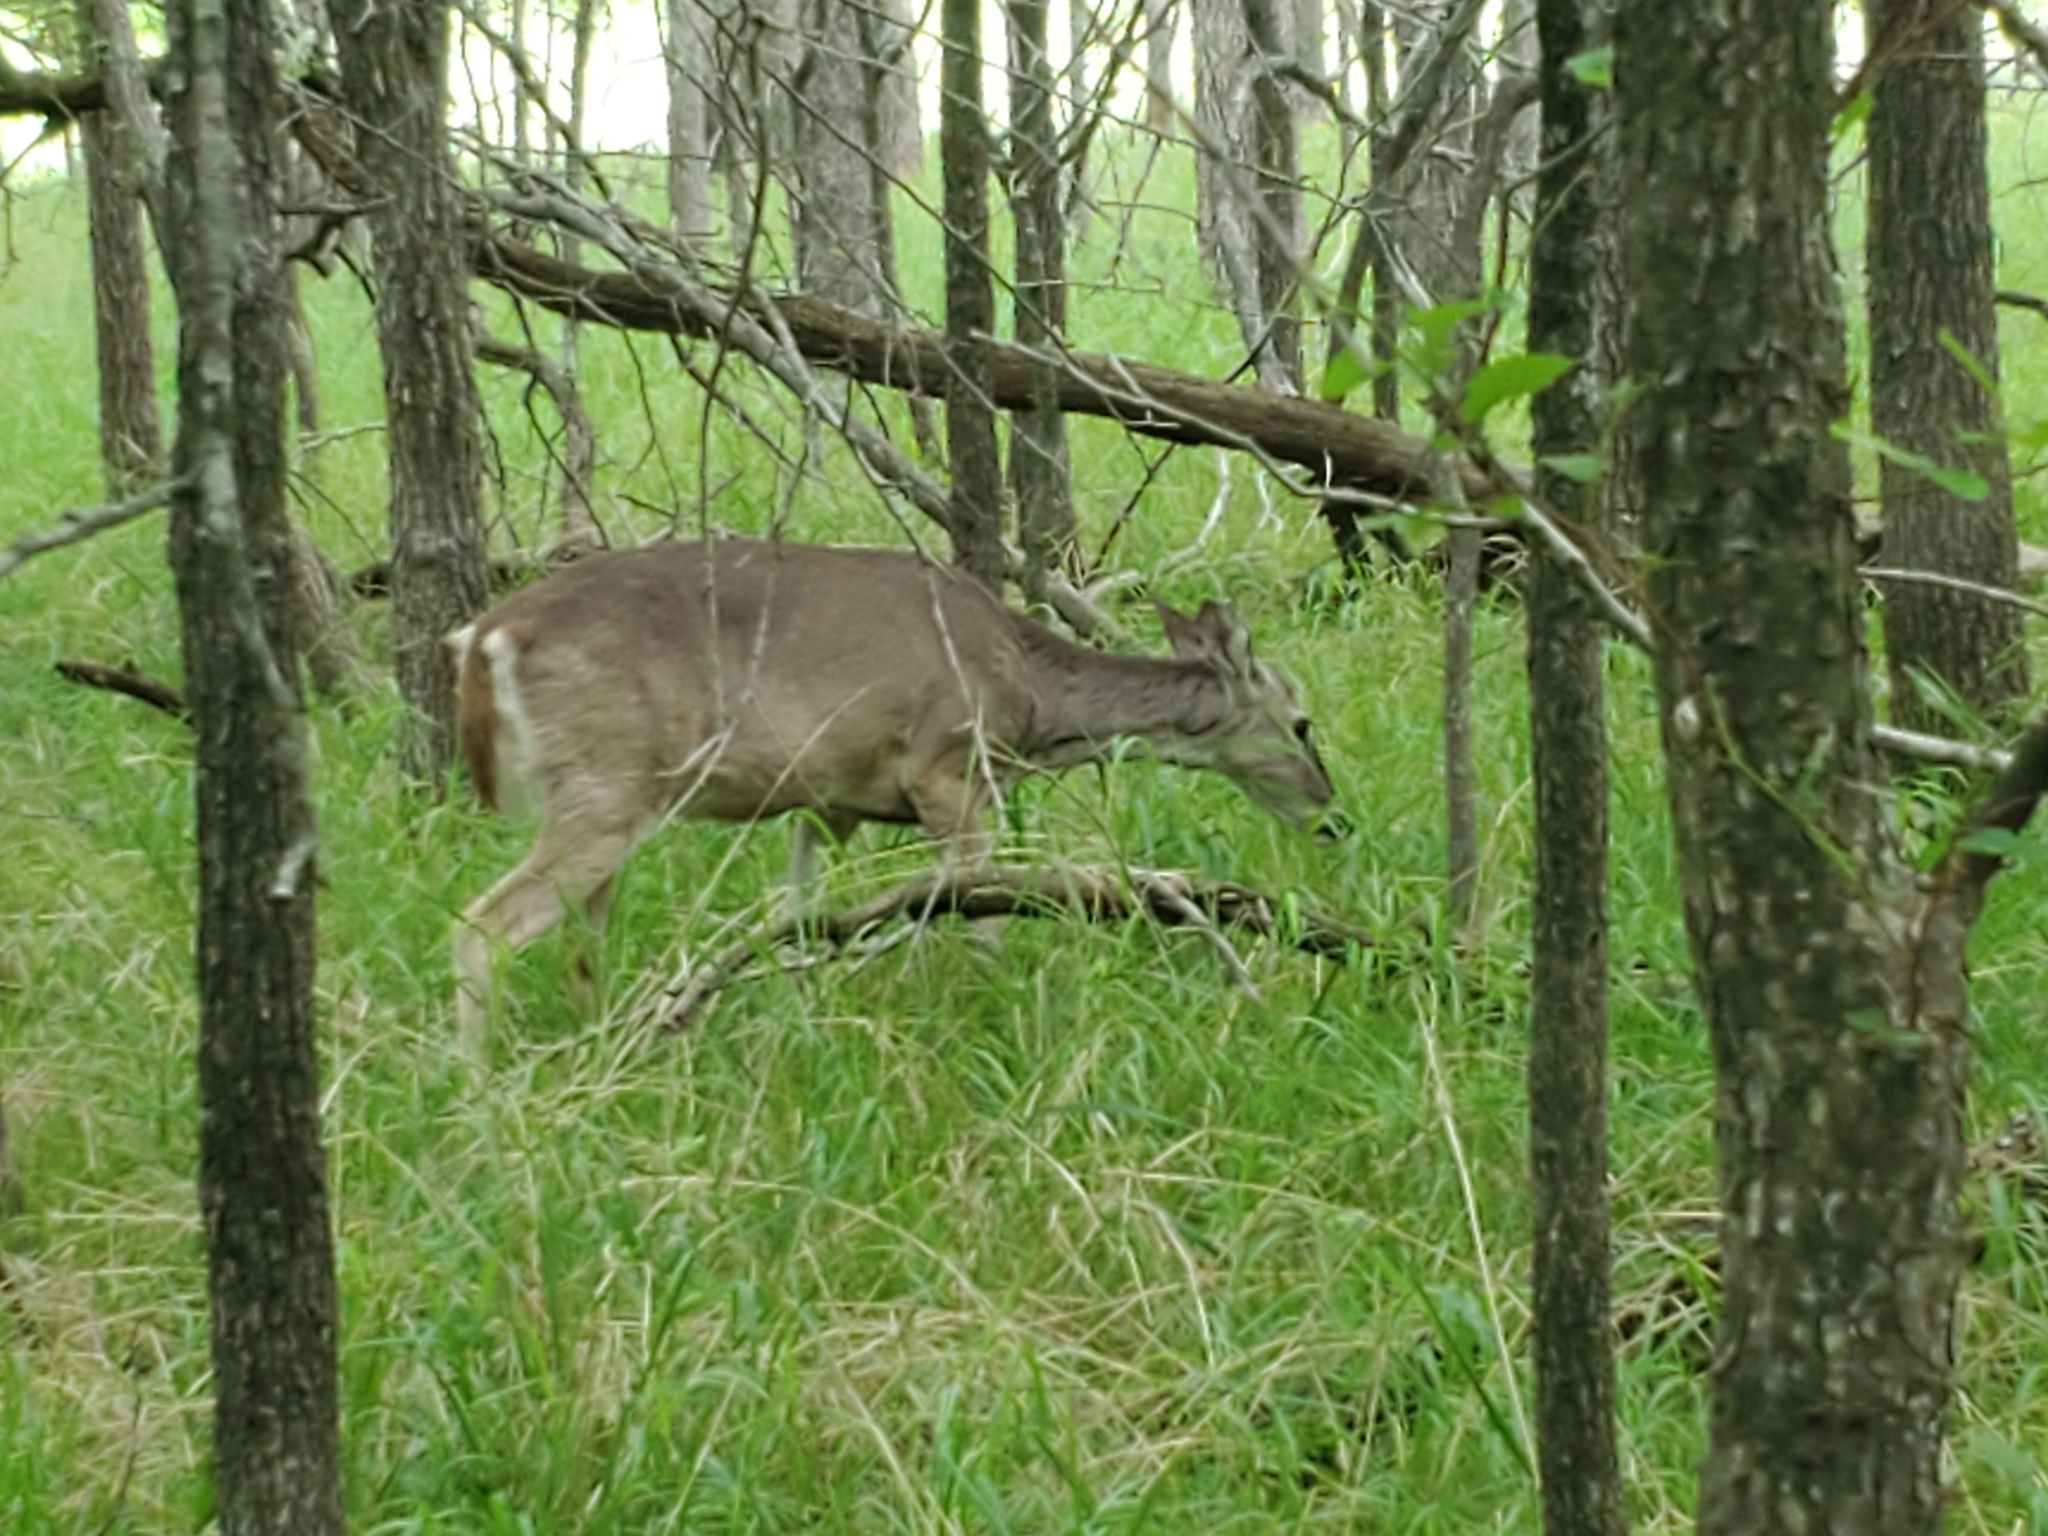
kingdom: Animalia
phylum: Chordata
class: Mammalia
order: Artiodactyla
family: Cervidae
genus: Odocoileus
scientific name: Odocoileus virginianus
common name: White-tailed deer
